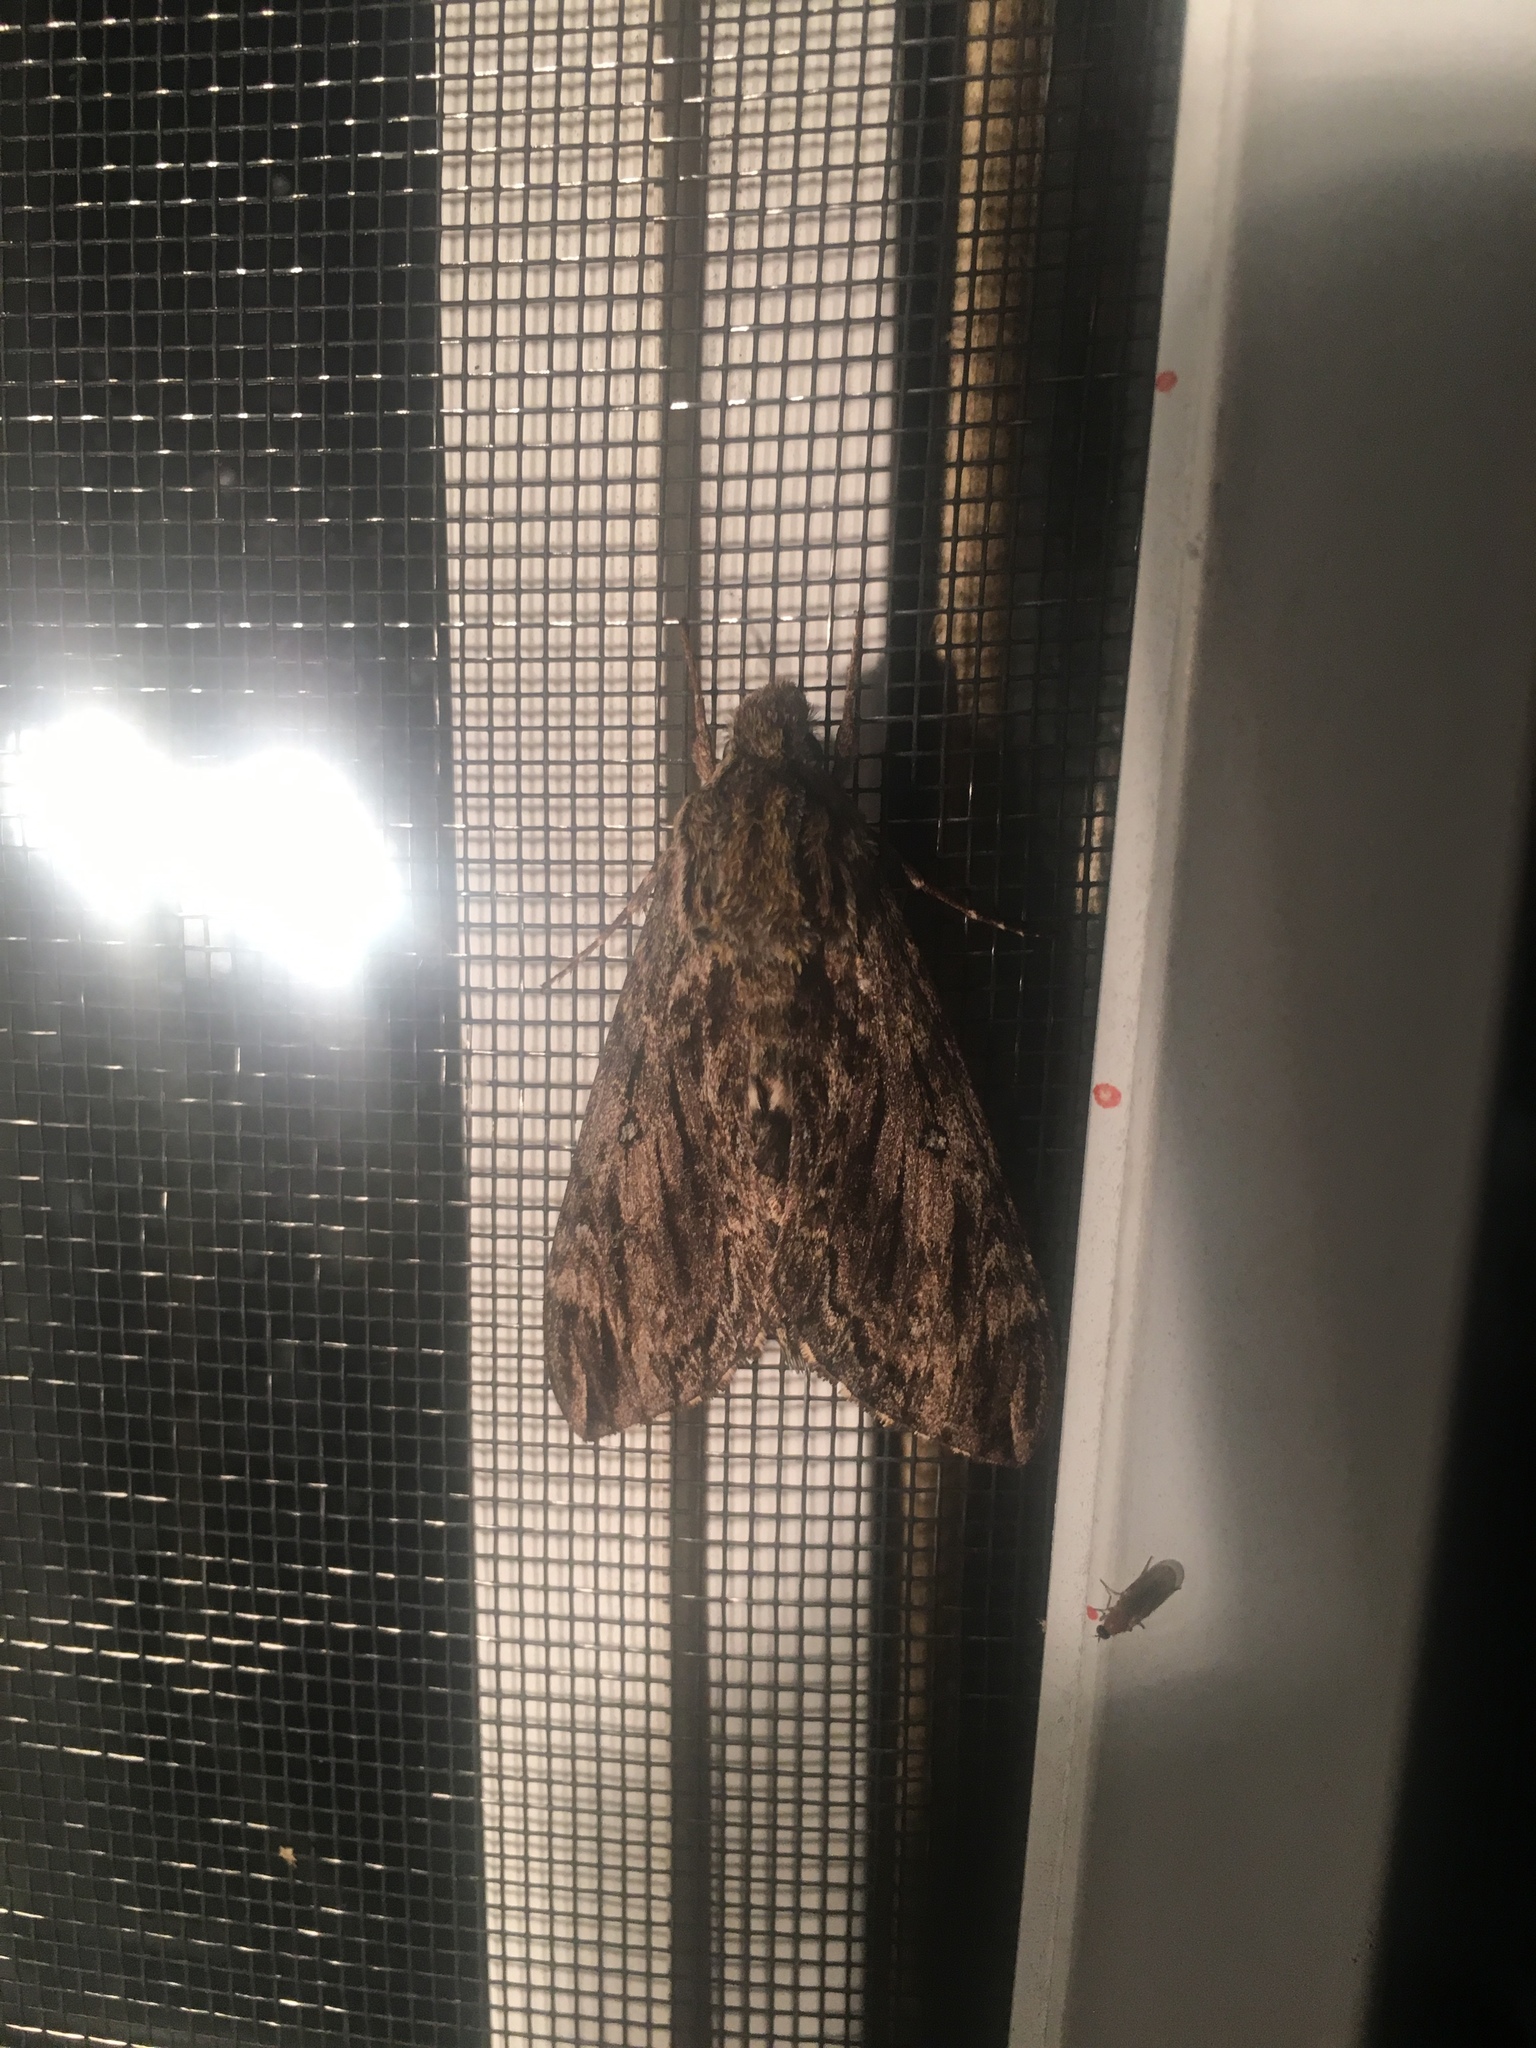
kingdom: Animalia
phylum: Arthropoda
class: Insecta
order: Lepidoptera
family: Sphingidae
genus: Lintneria
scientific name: Lintneria eremitus
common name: Hermit sphinx
